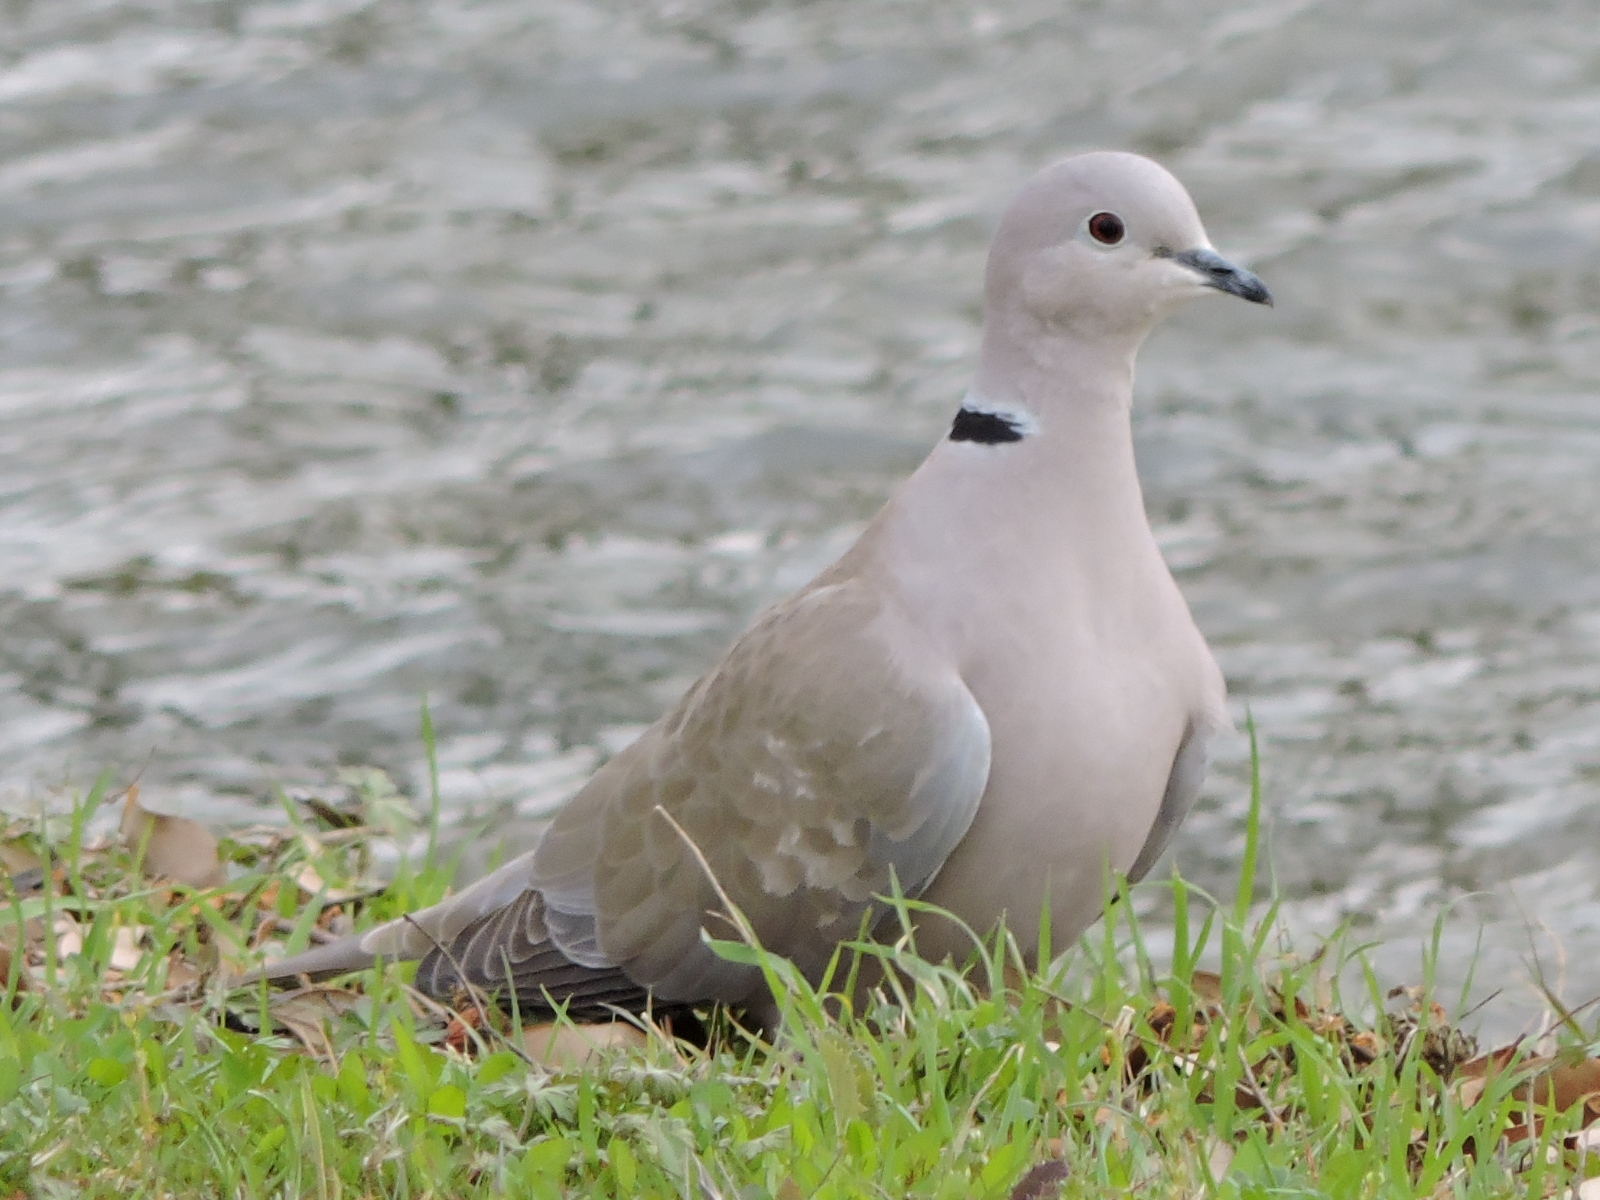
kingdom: Animalia
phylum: Chordata
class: Aves
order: Columbiformes
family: Columbidae
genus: Streptopelia
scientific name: Streptopelia decaocto
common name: Eurasian collared dove
